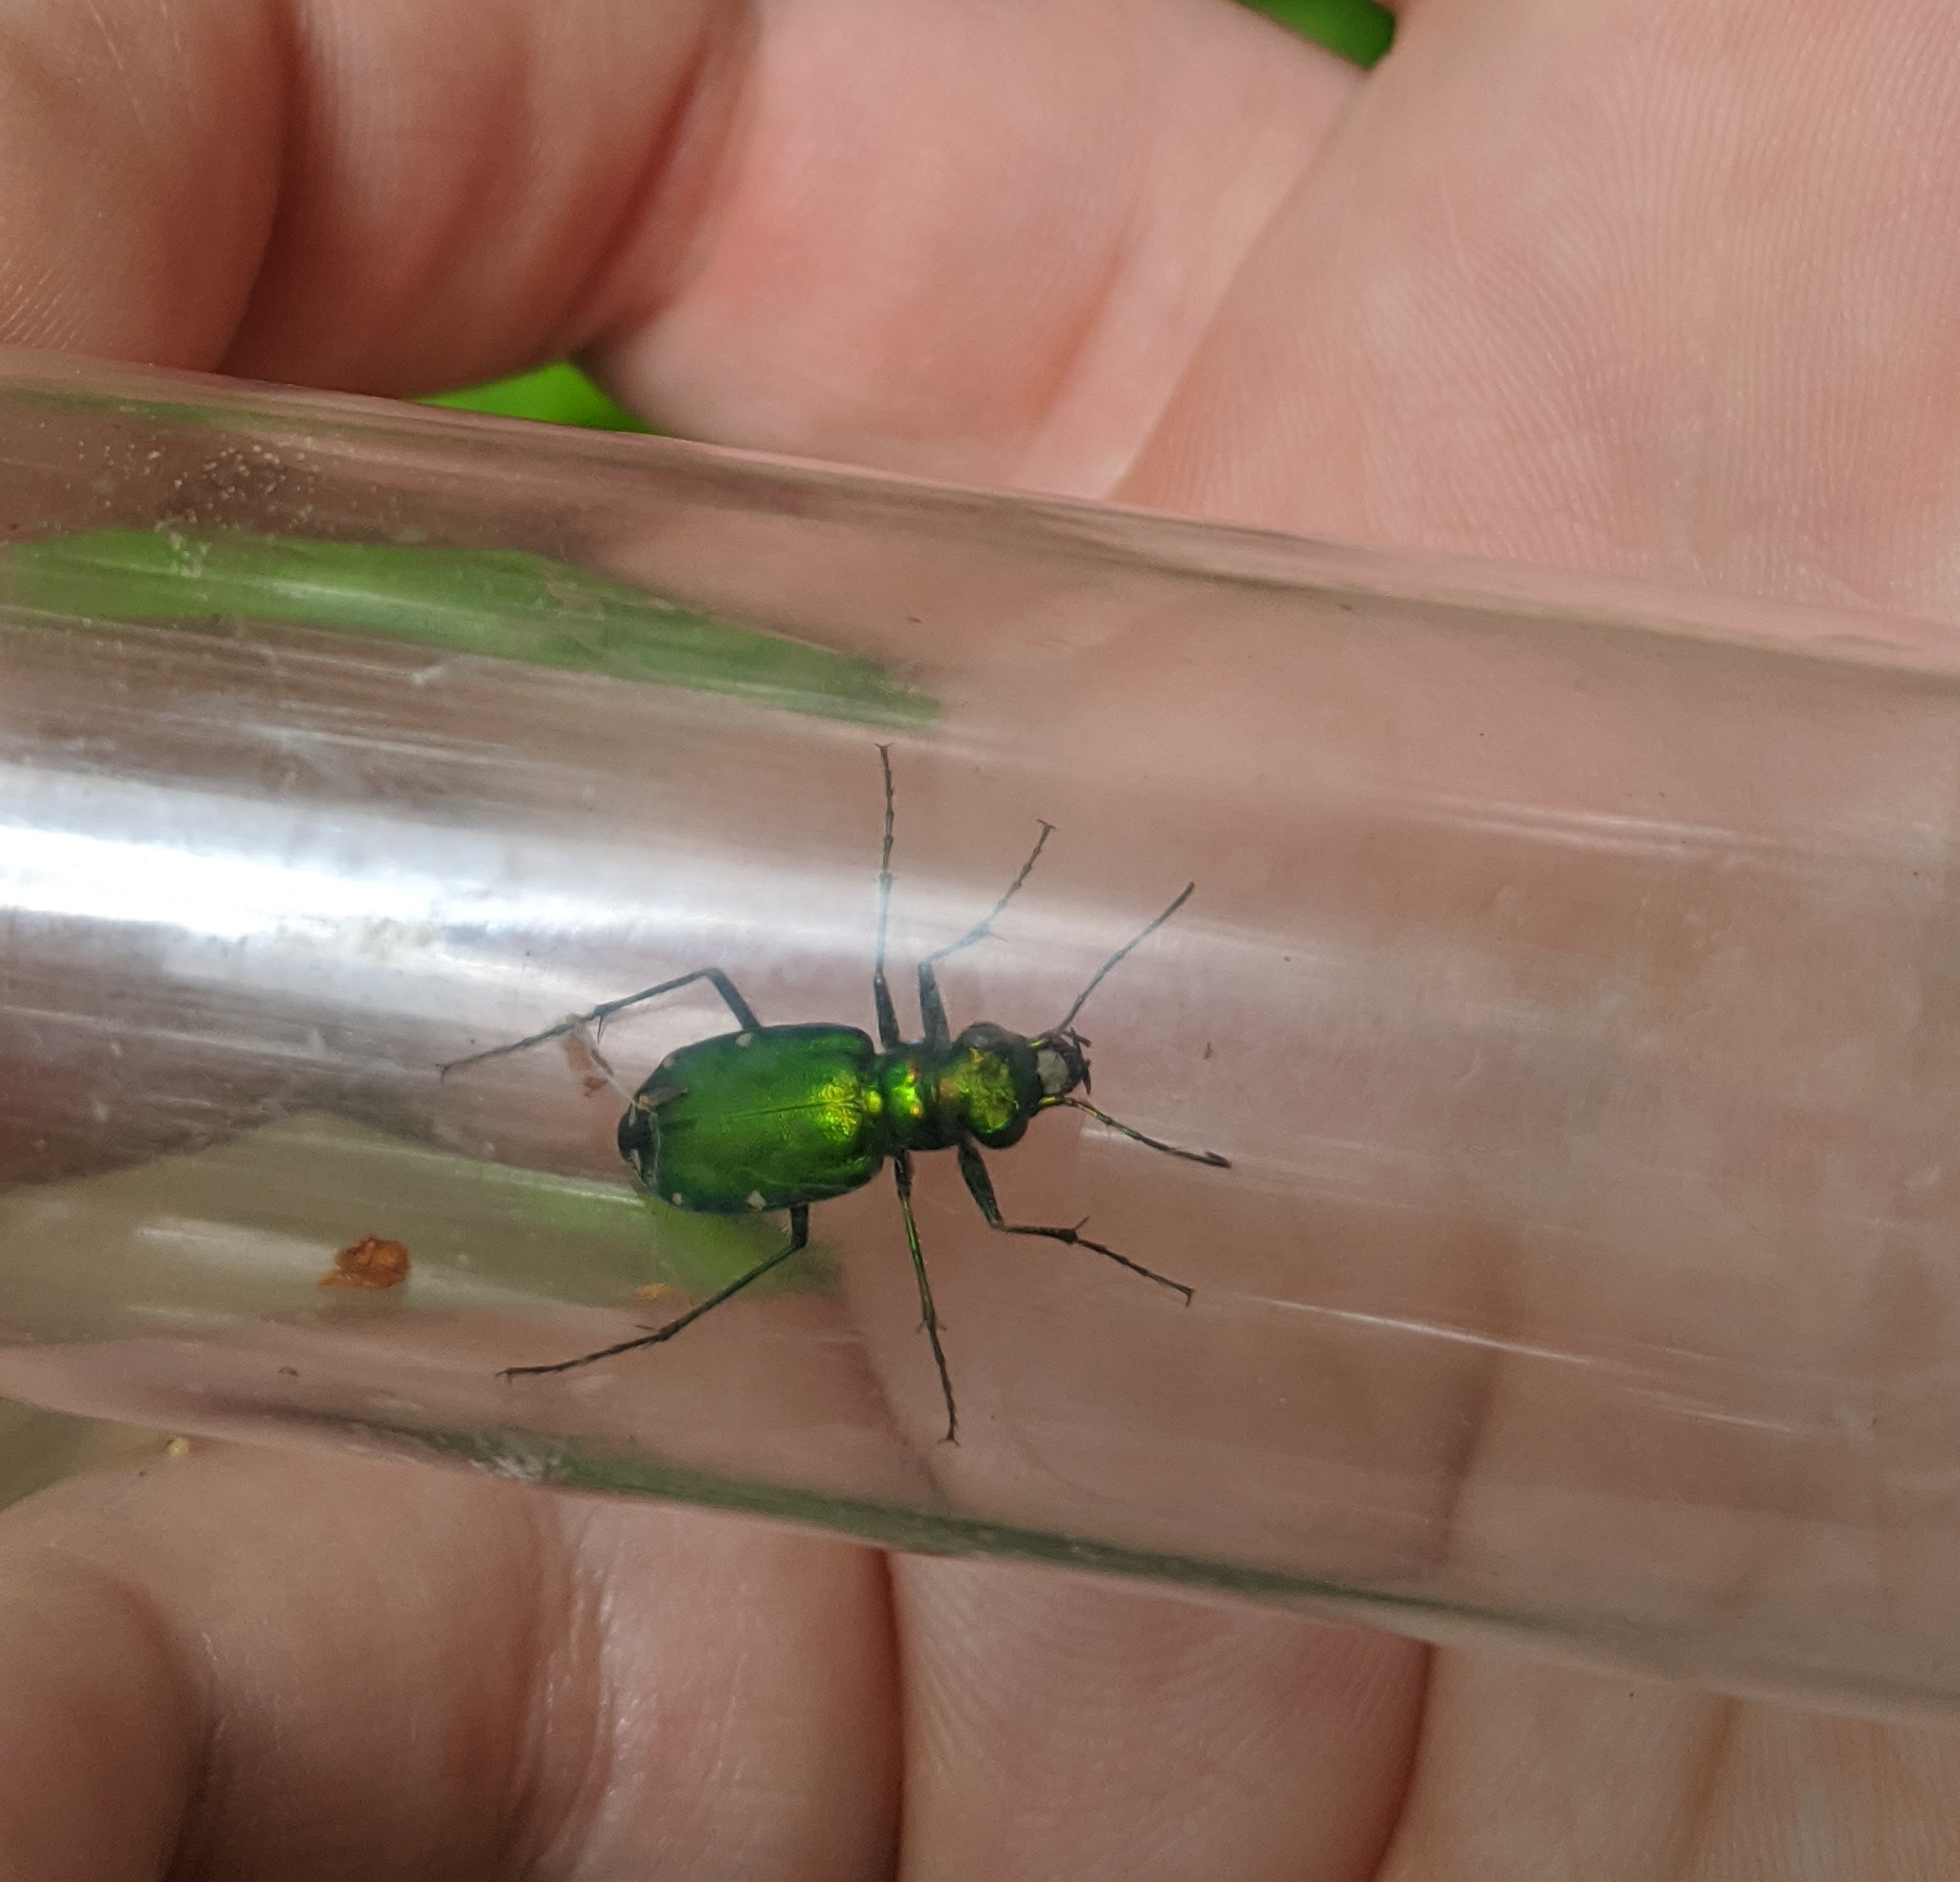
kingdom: Animalia
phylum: Arthropoda
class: Insecta
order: Coleoptera
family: Carabidae
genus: Cicindela
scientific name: Cicindela sexguttata
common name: Six-spotted tiger beetle
